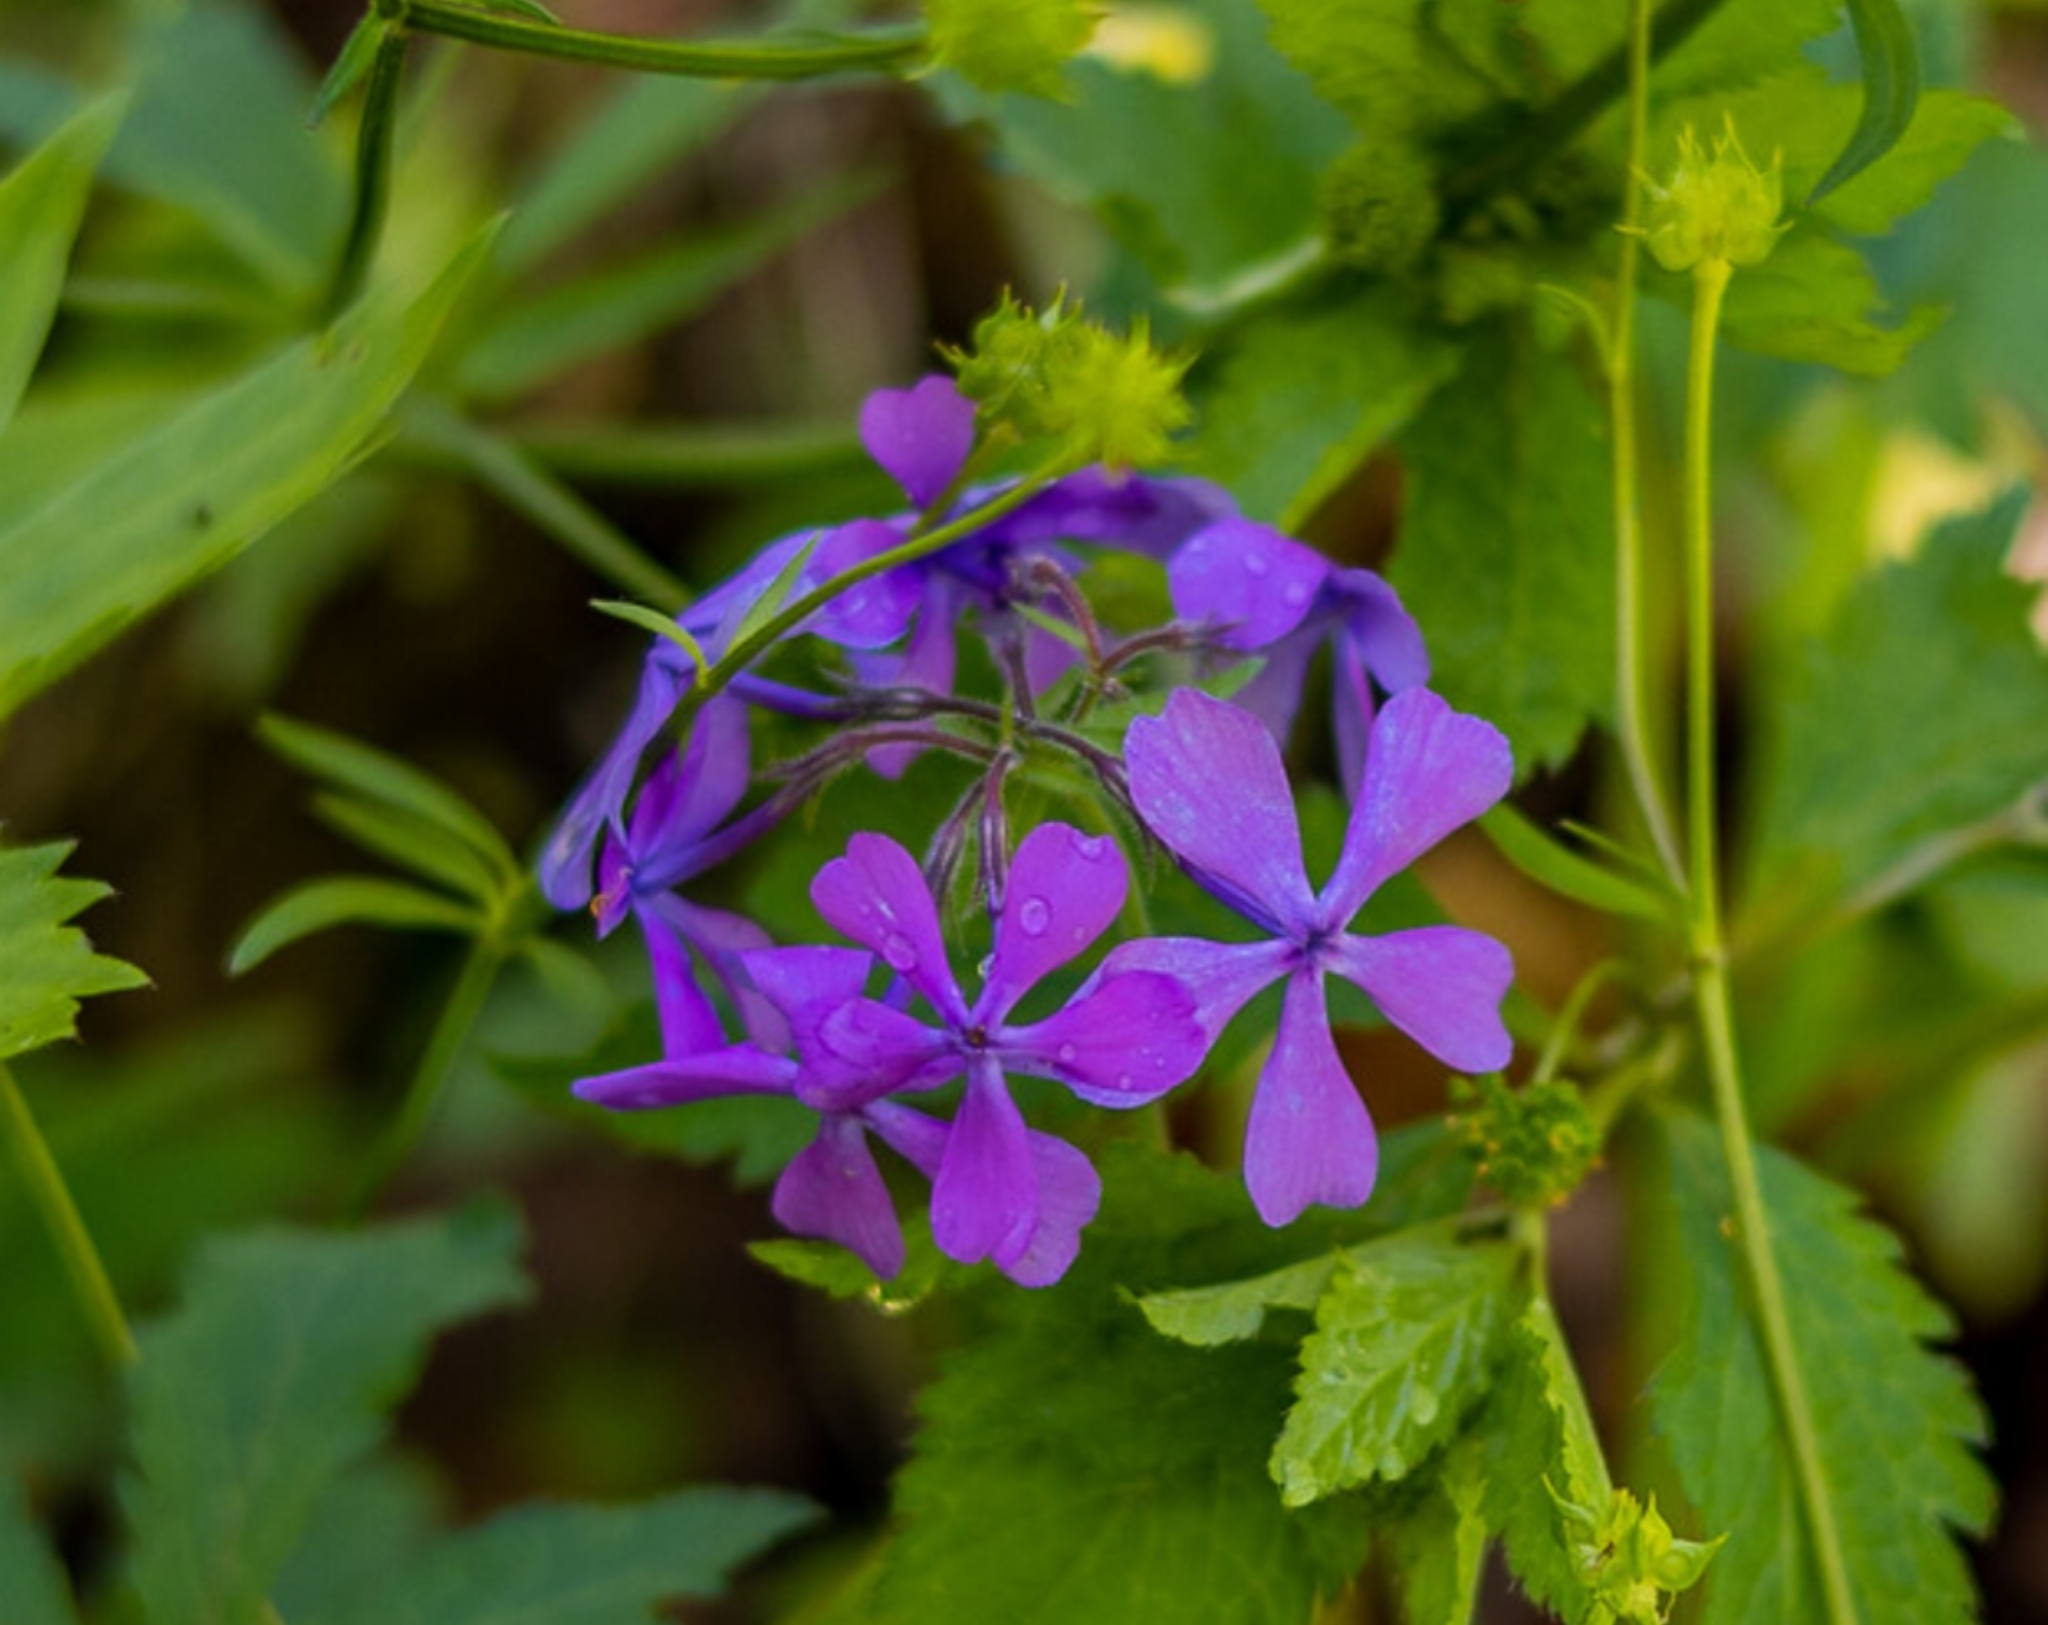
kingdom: Plantae
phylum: Tracheophyta
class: Magnoliopsida
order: Ericales
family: Polemoniaceae
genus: Phlox
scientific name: Phlox divaricata
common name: Blue phlox
